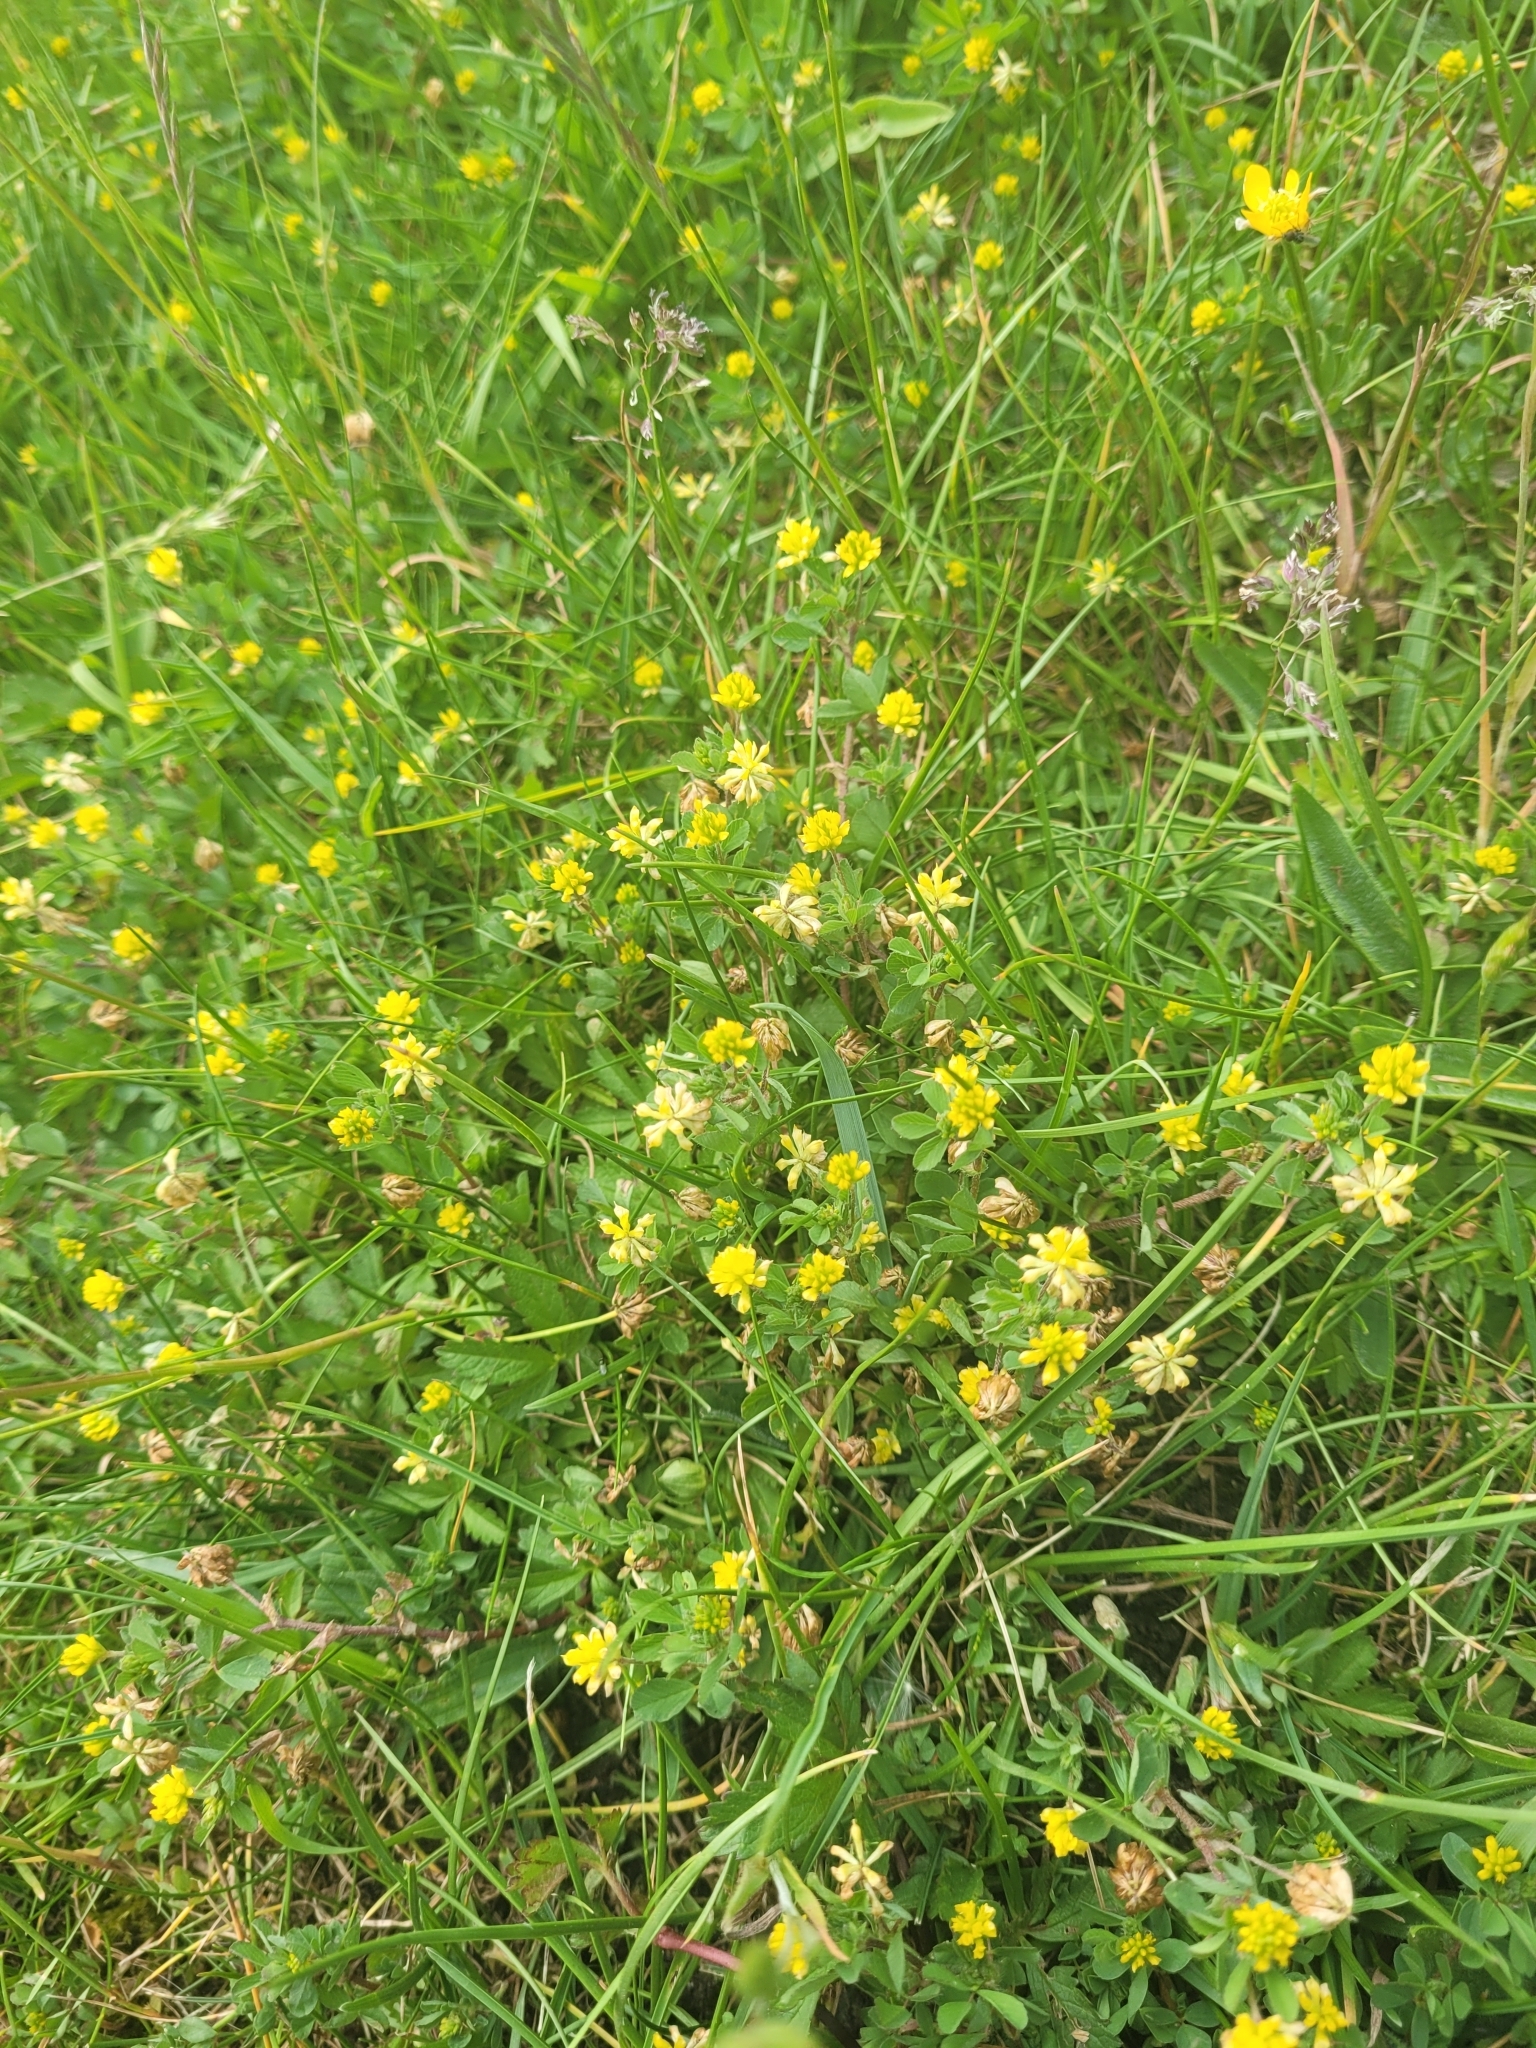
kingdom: Plantae
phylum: Tracheophyta
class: Magnoliopsida
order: Fabales
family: Fabaceae
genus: Trifolium
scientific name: Trifolium dubium
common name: Suckling clover
